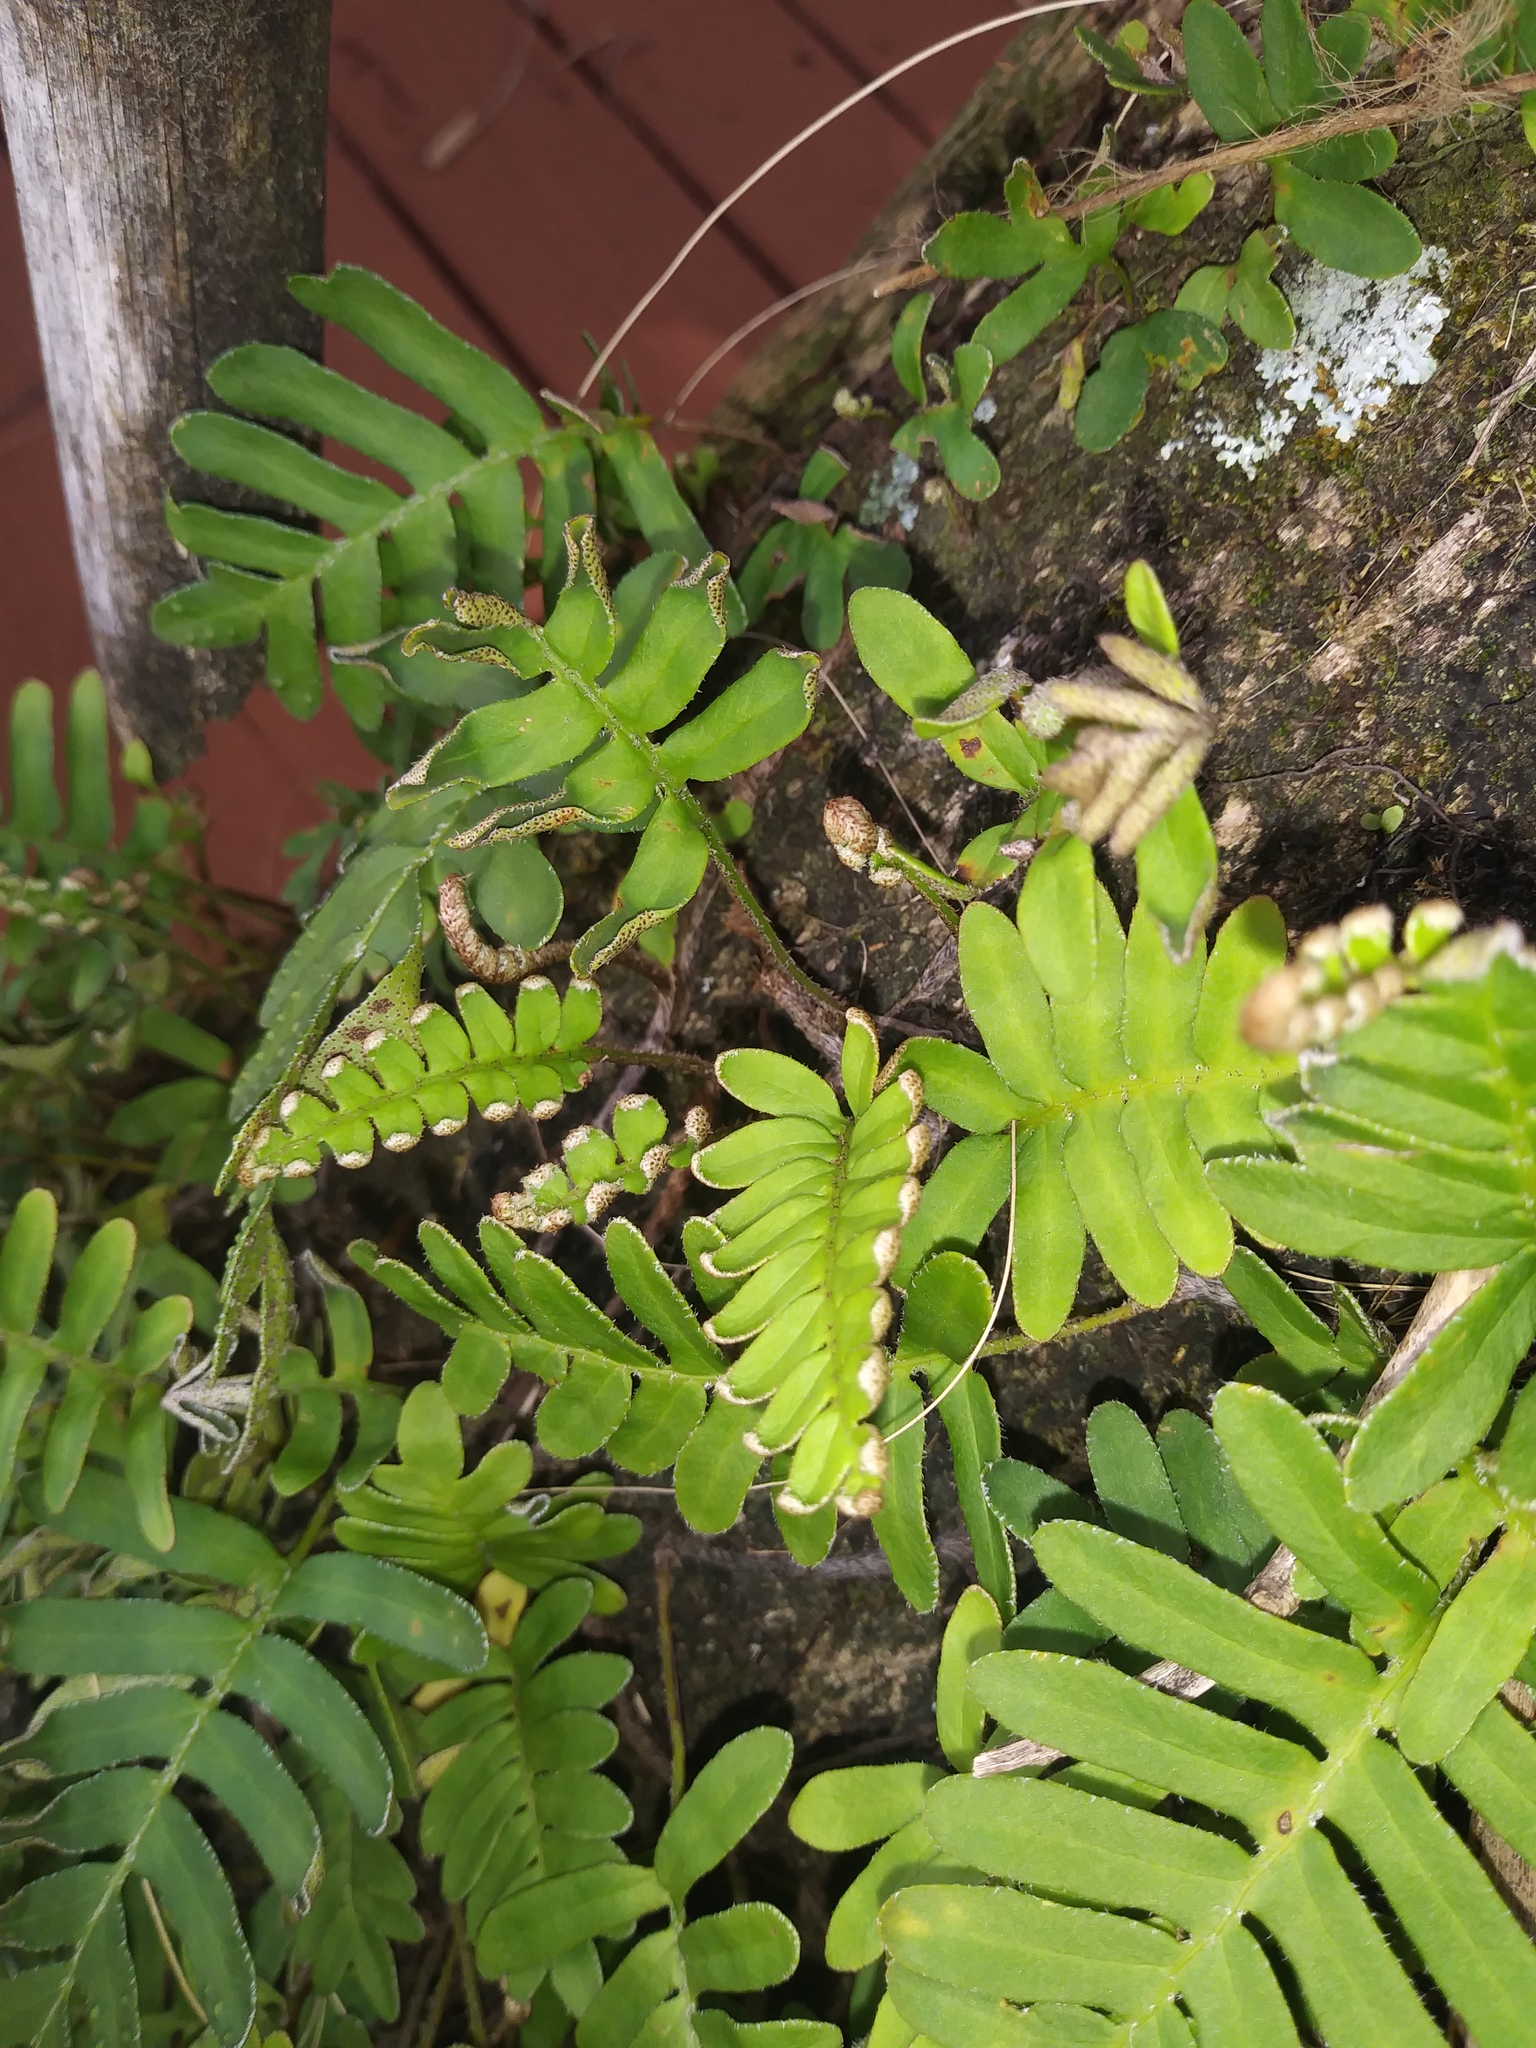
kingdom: Plantae
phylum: Tracheophyta
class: Polypodiopsida
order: Polypodiales
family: Polypodiaceae
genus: Pleopeltis
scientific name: Pleopeltis michauxiana
